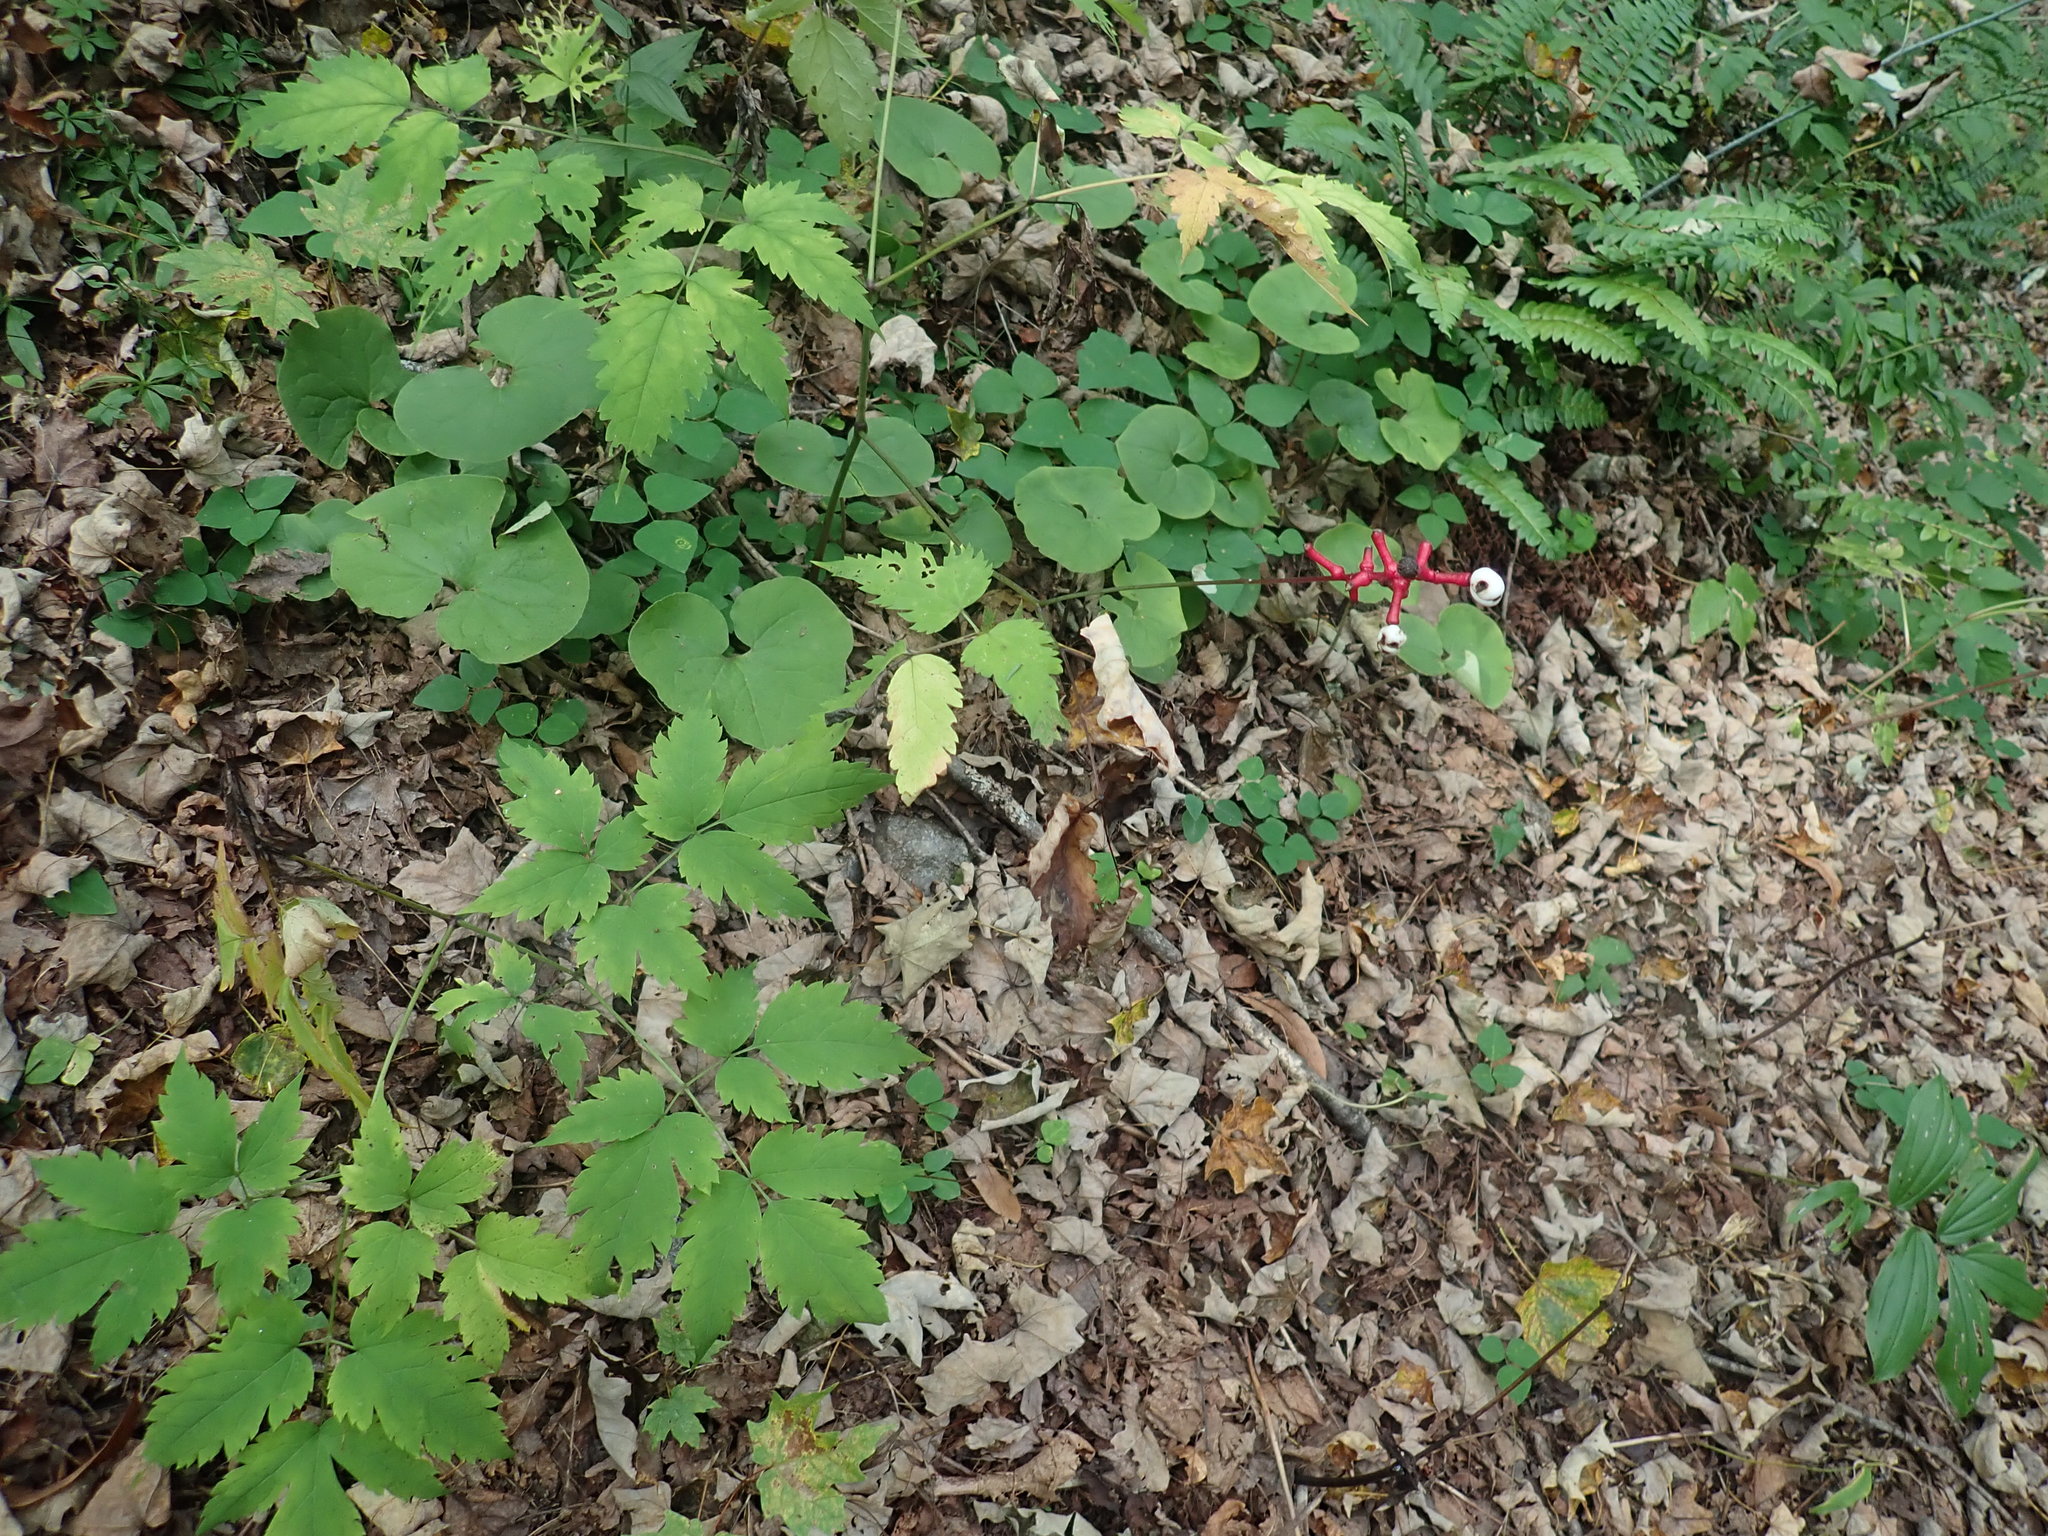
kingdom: Plantae
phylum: Tracheophyta
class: Magnoliopsida
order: Ranunculales
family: Ranunculaceae
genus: Actaea
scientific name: Actaea pachypoda
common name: Doll's-eyes
